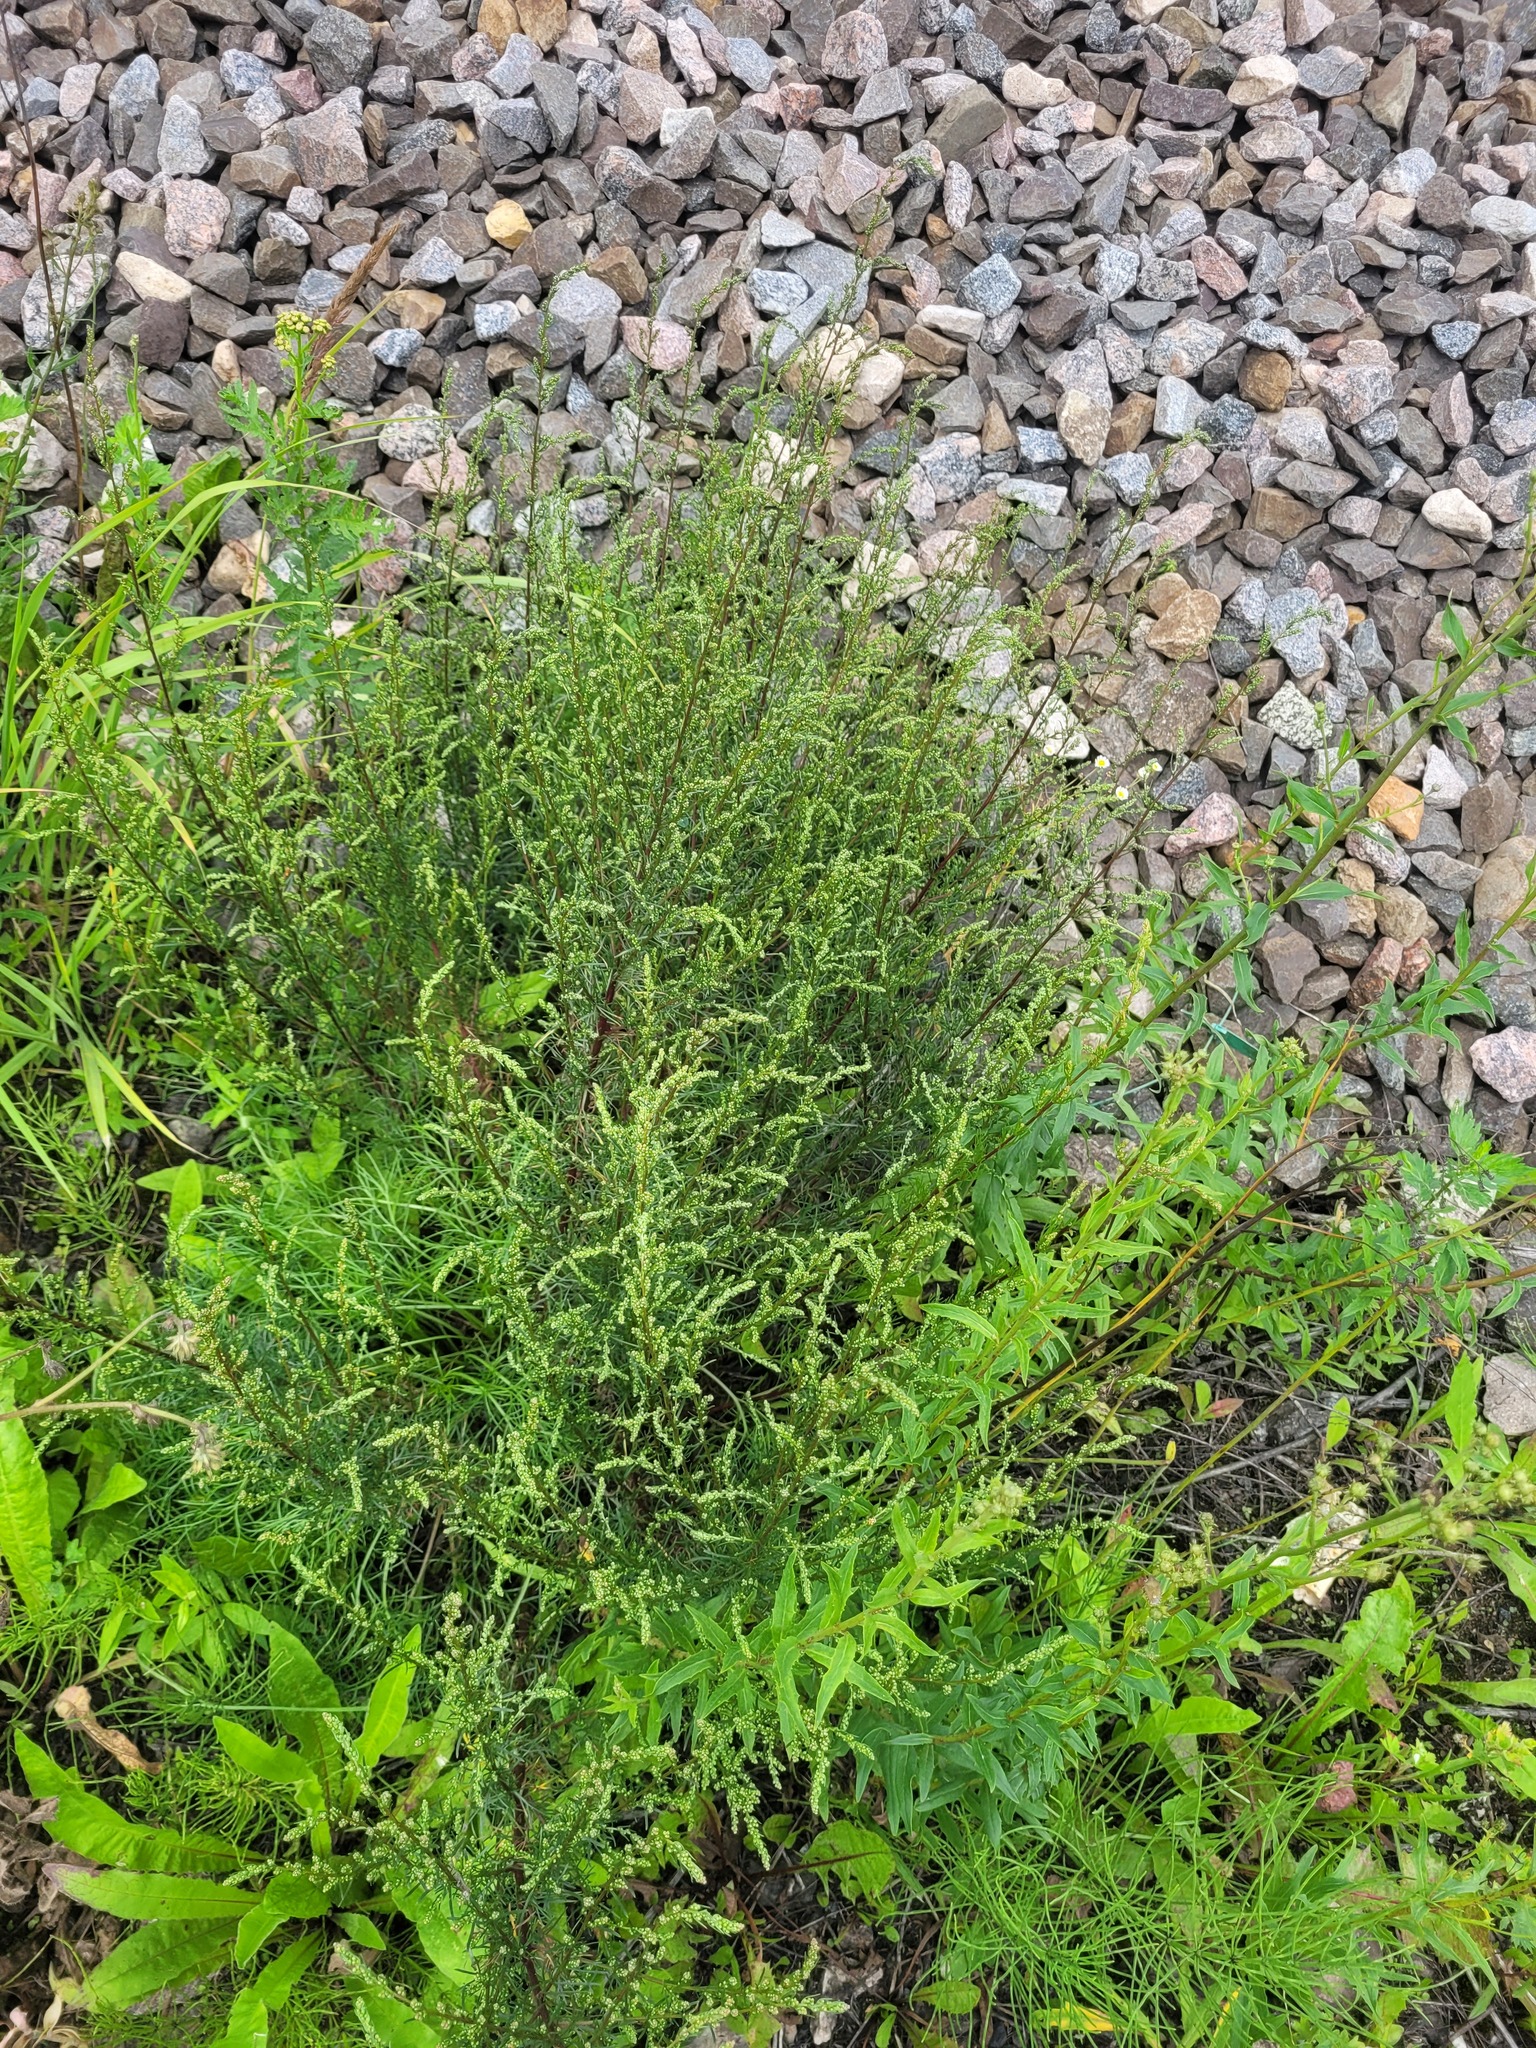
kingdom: Plantae
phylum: Tracheophyta
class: Magnoliopsida
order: Asterales
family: Asteraceae
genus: Artemisia
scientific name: Artemisia campestris
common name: Field wormwood
